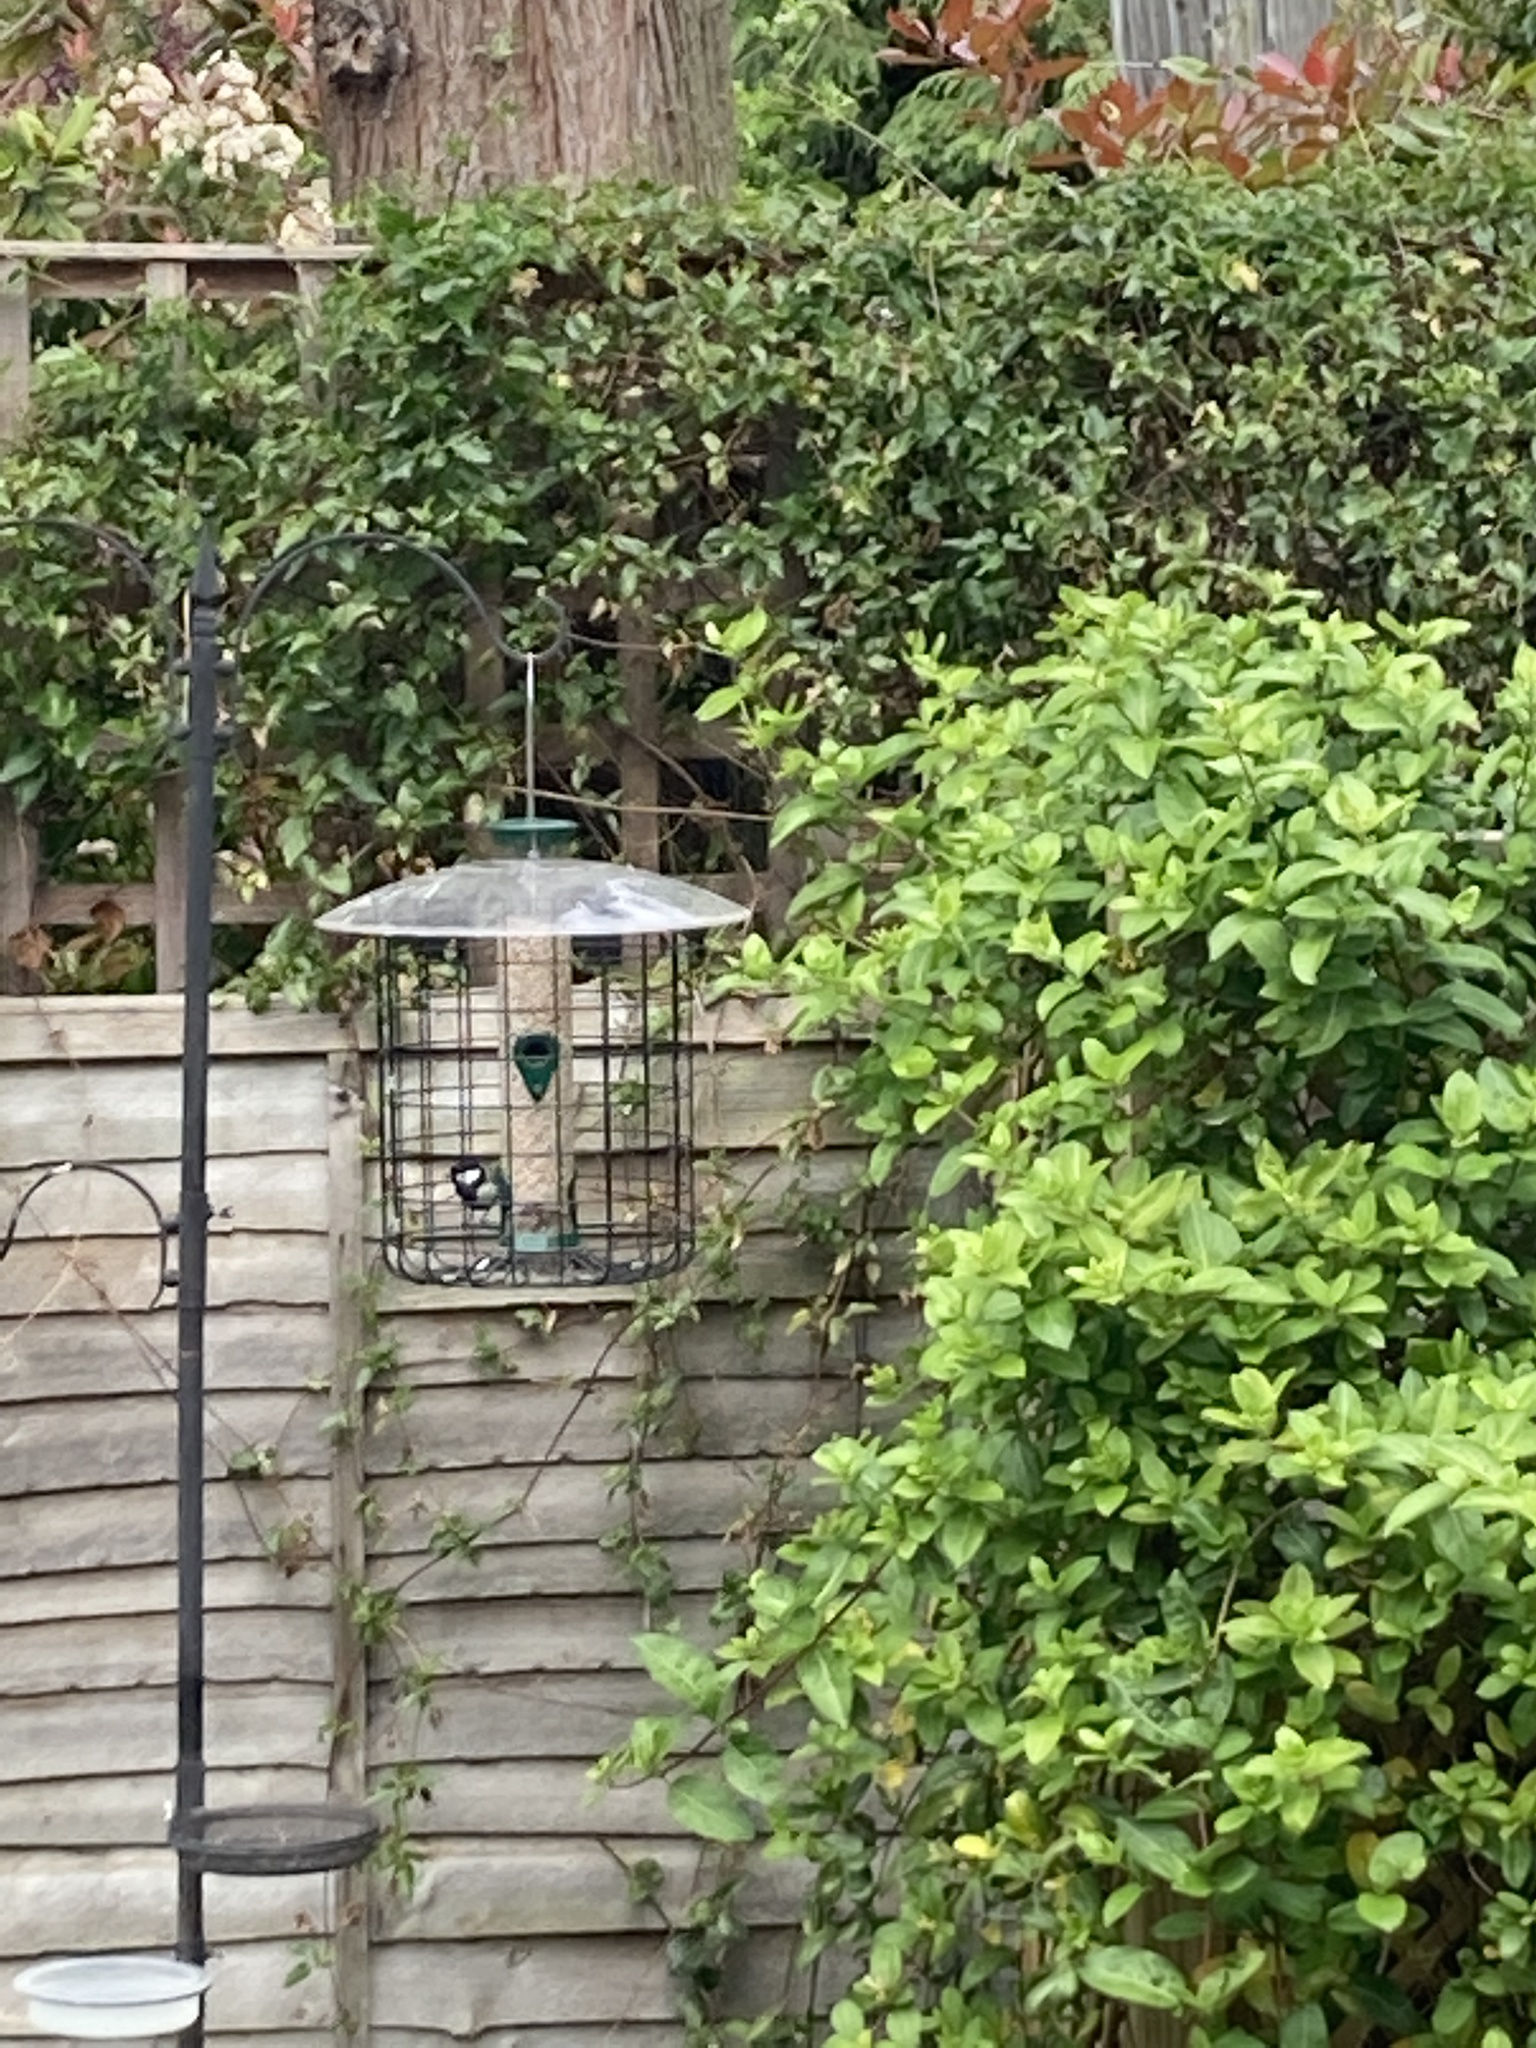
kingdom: Animalia
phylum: Chordata
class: Aves
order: Passeriformes
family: Paridae
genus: Parus
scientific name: Parus major
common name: Great tit
